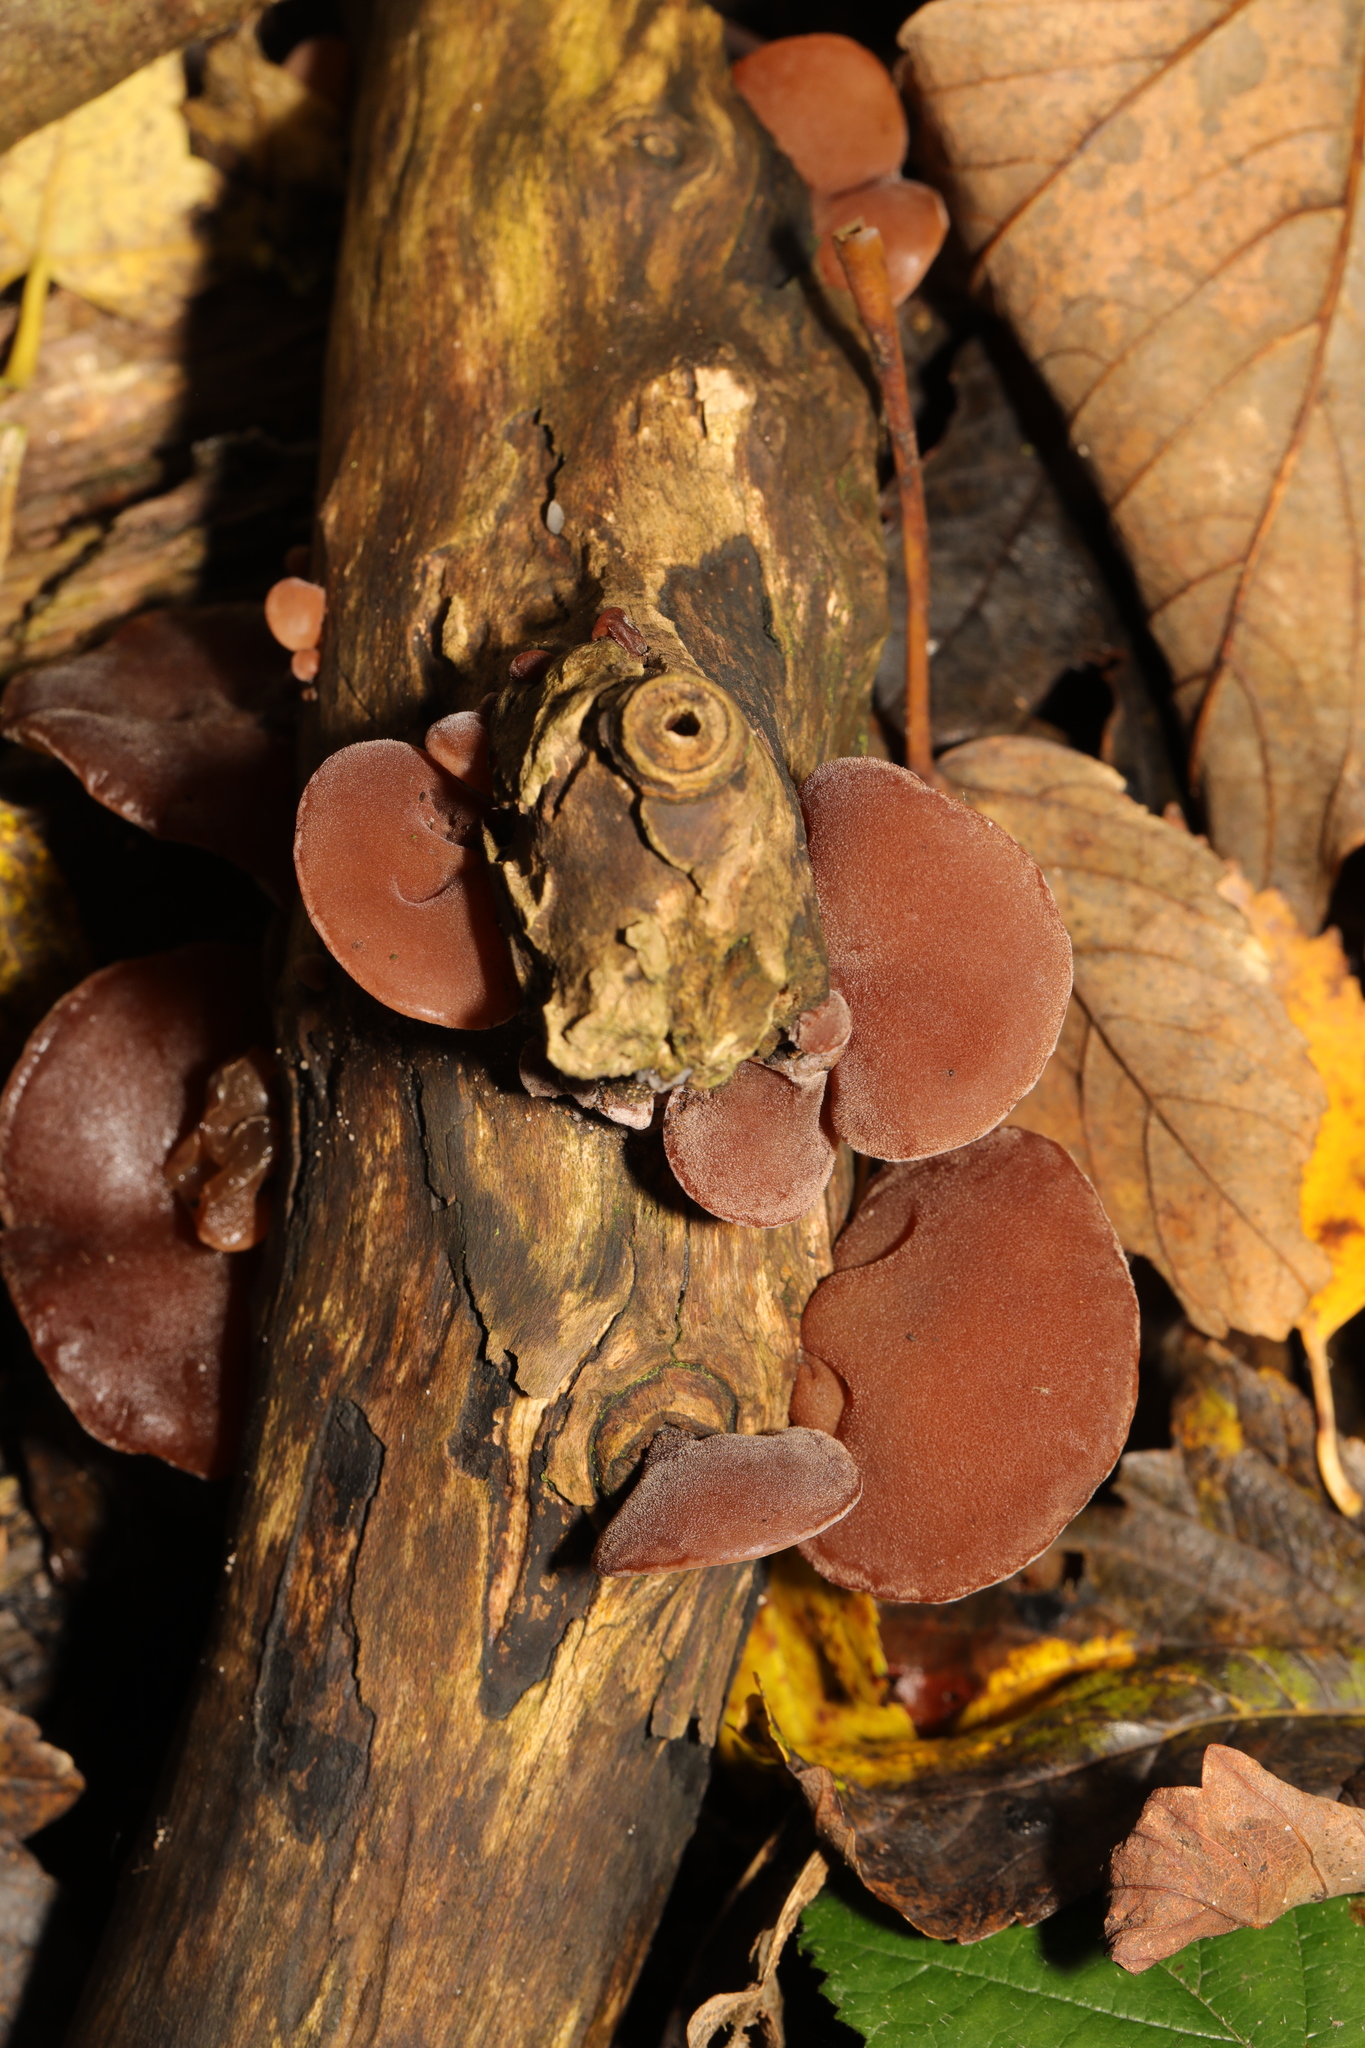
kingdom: Fungi
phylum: Basidiomycota
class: Agaricomycetes
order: Auriculariales
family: Auriculariaceae
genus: Auricularia
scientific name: Auricularia auricula-judae
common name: Jelly ear
